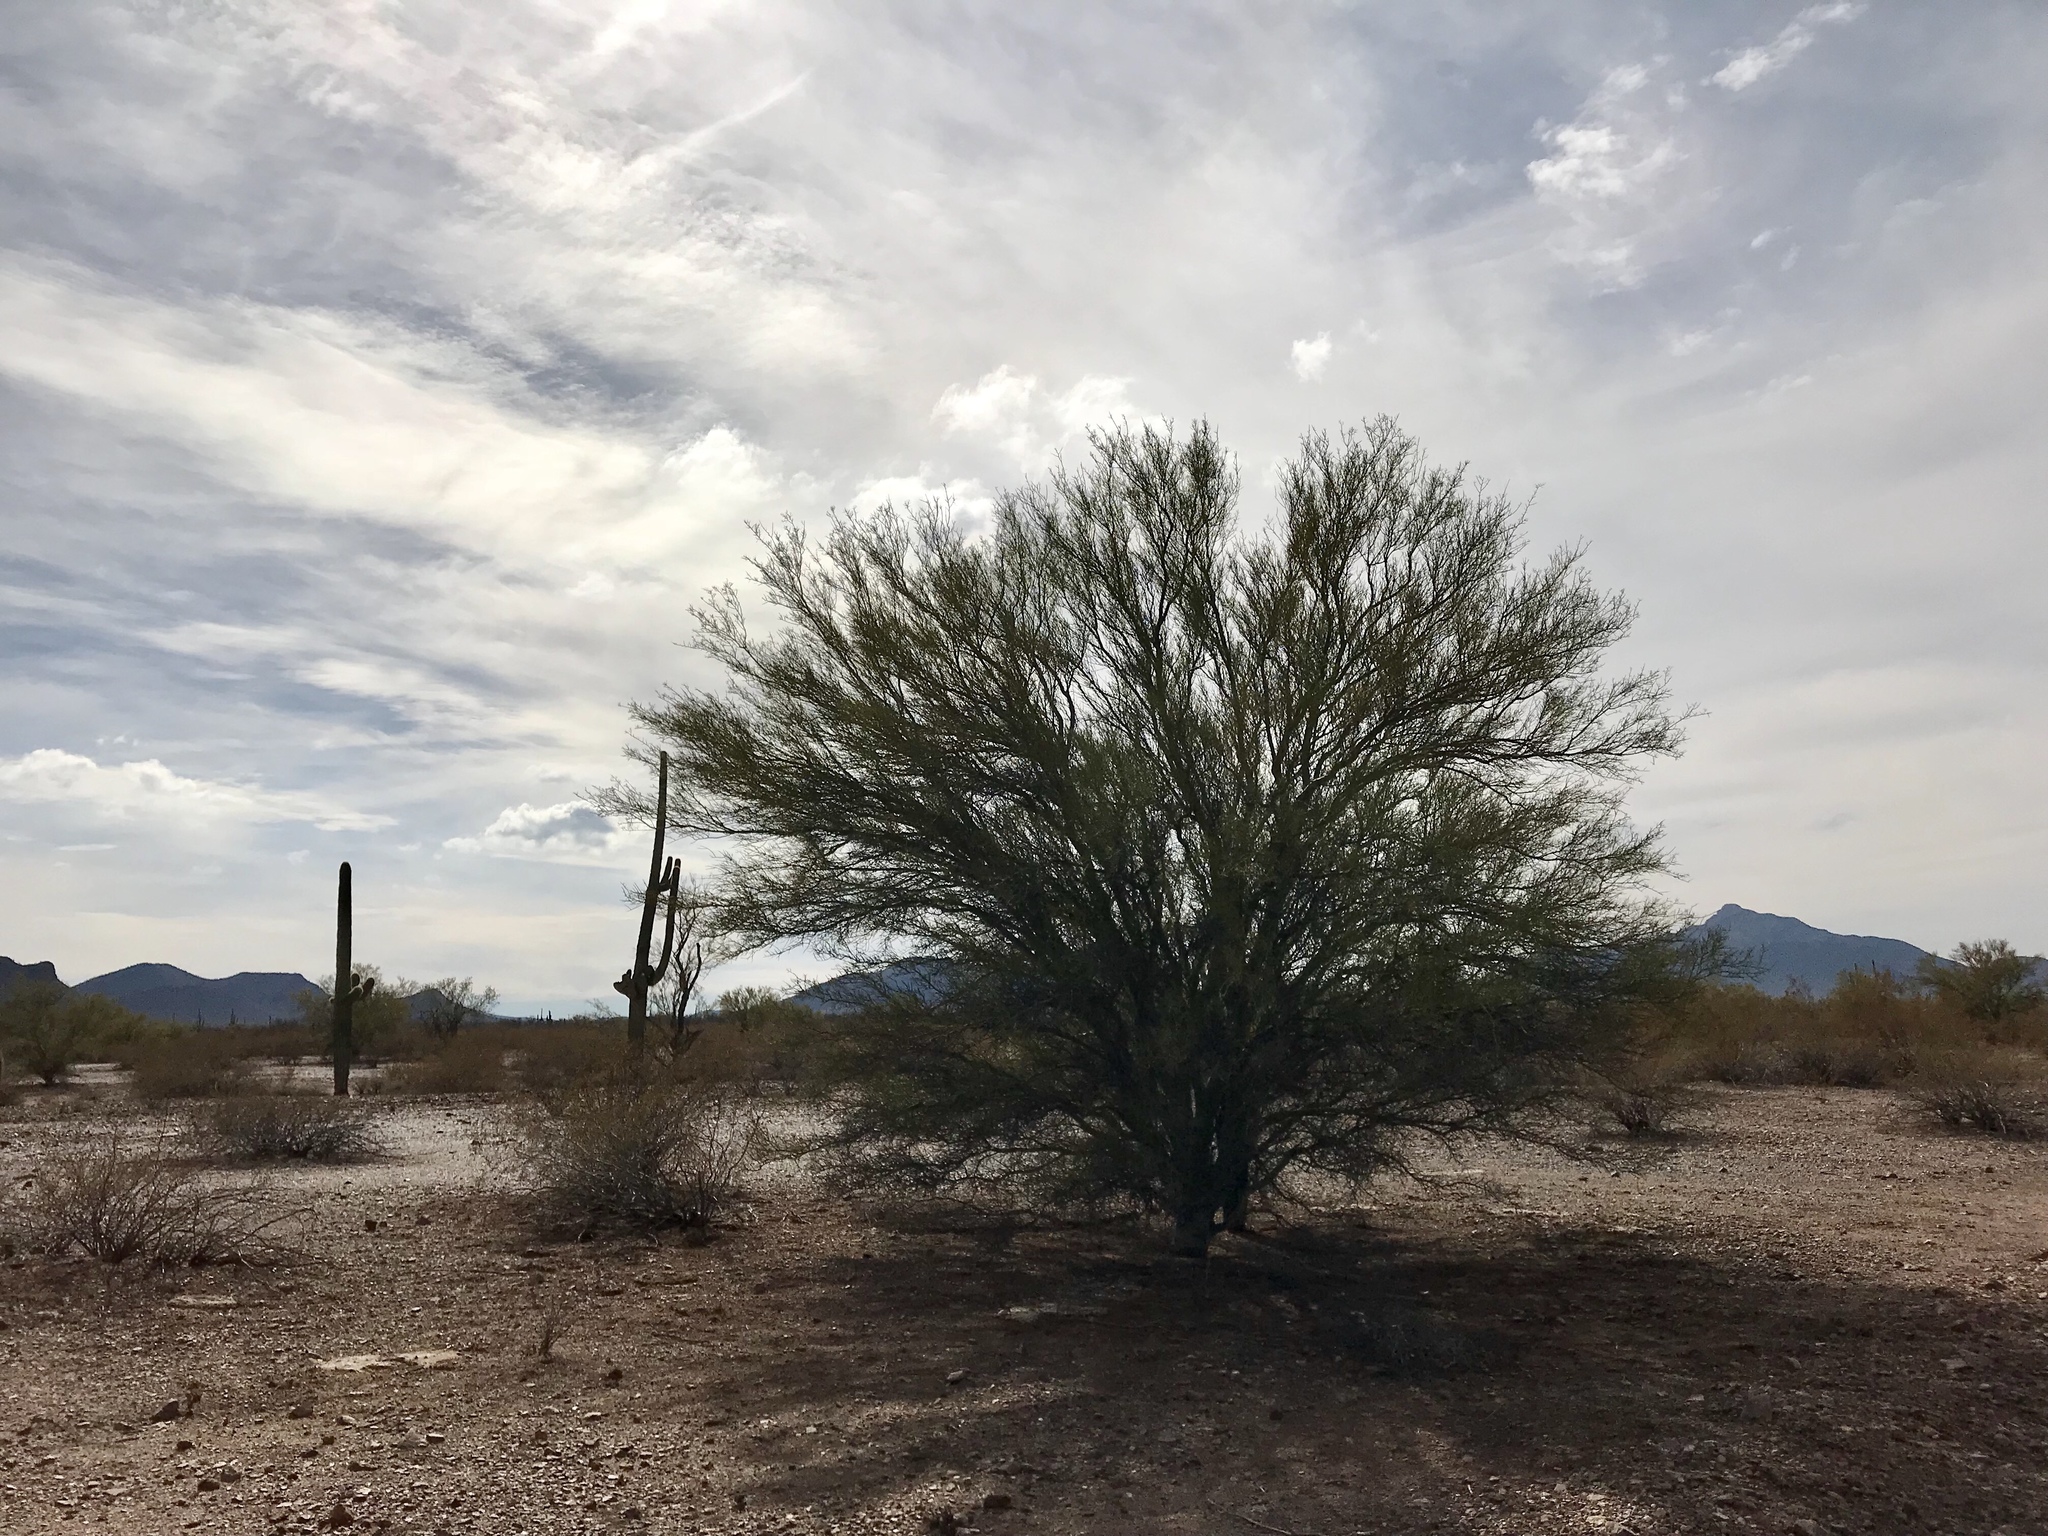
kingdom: Plantae
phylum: Tracheophyta
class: Magnoliopsida
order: Fabales
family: Fabaceae
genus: Parkinsonia
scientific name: Parkinsonia microphylla
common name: Yellow paloverde
